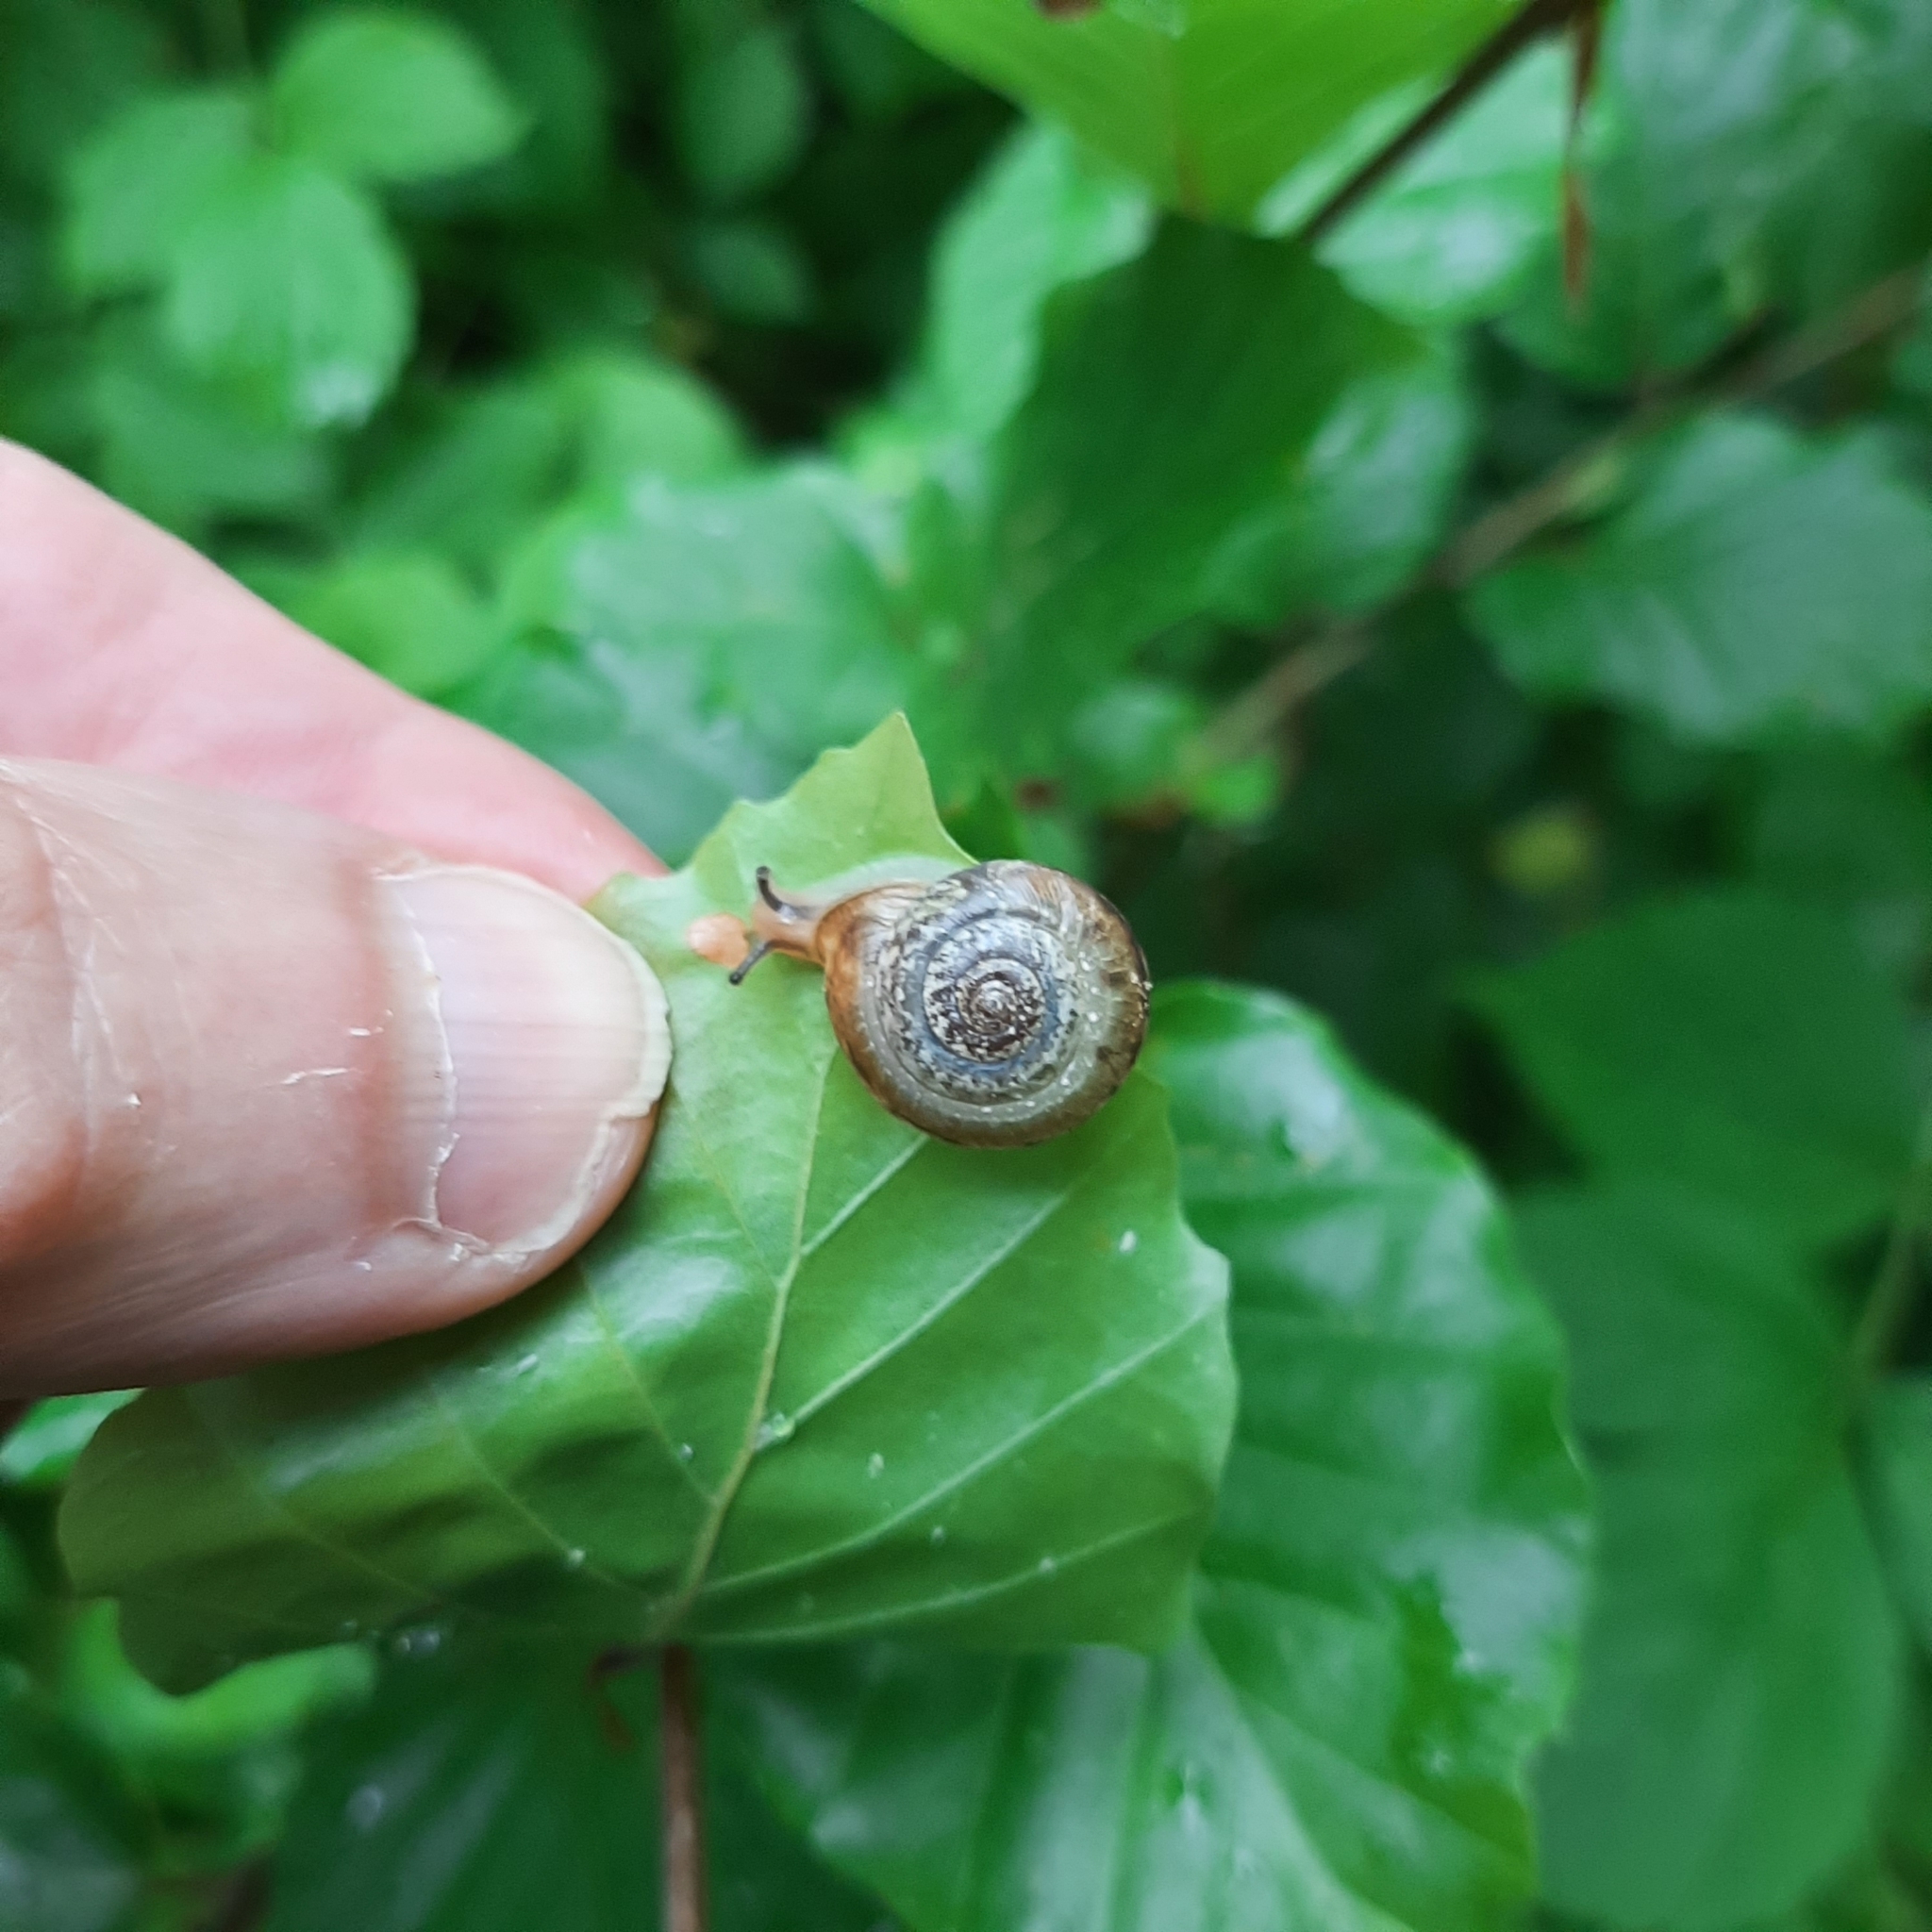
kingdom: Animalia
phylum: Mollusca
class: Gastropoda
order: Stylommatophora
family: Hygromiidae
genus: Urticicola
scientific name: Urticicola umbrosus
